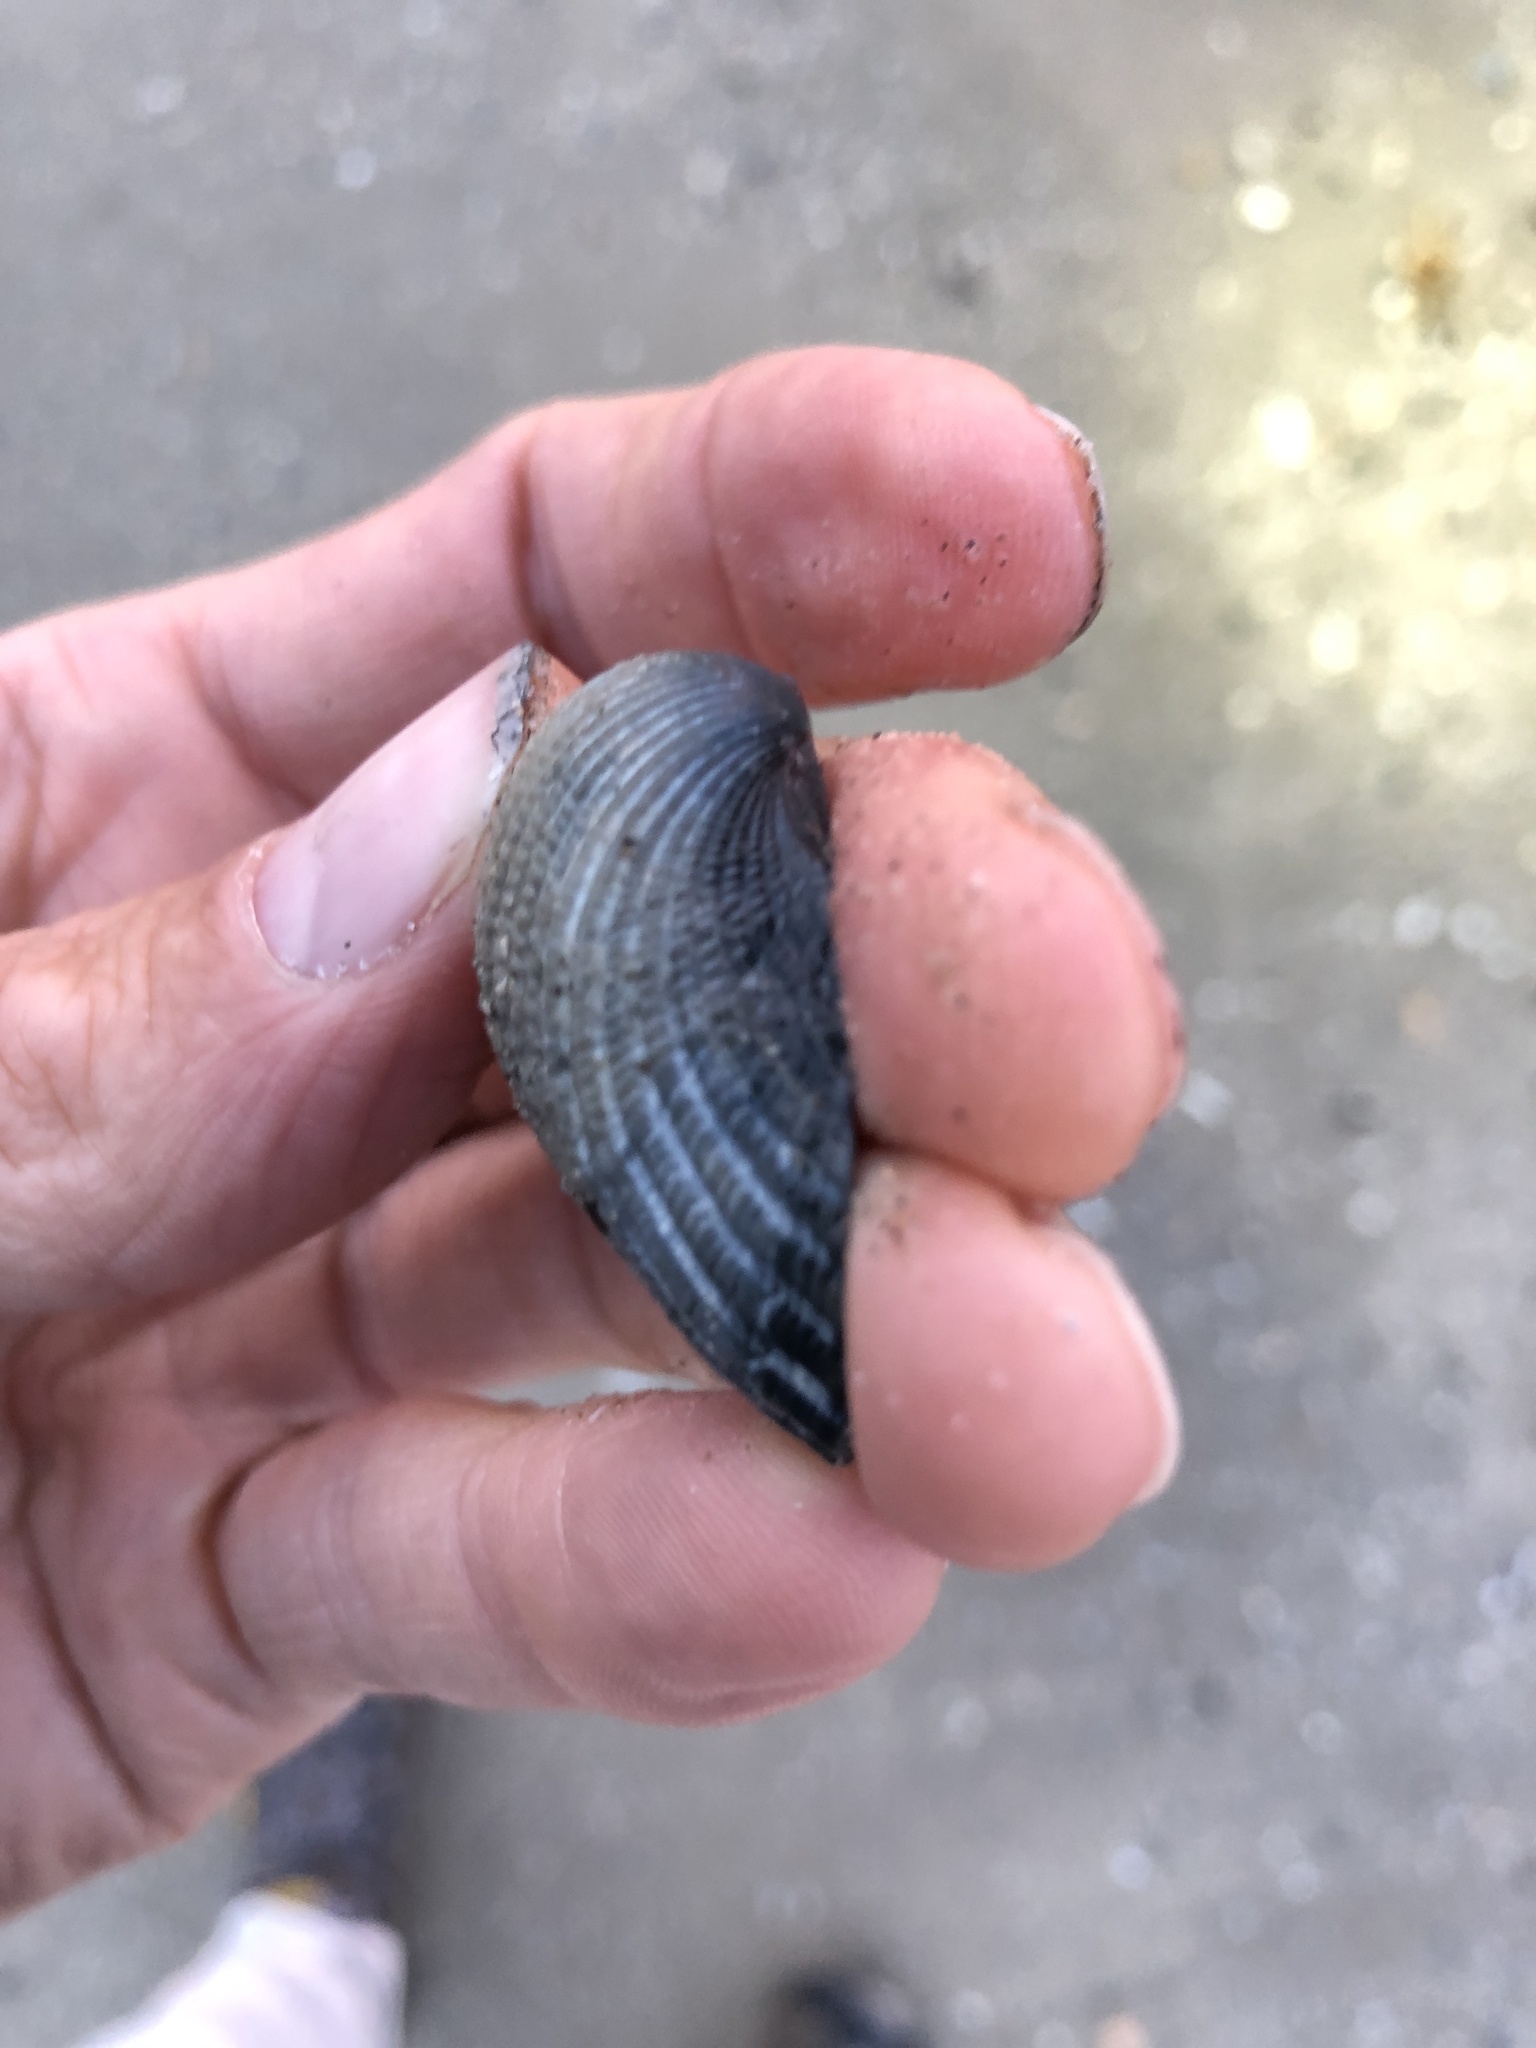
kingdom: Animalia
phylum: Mollusca
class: Bivalvia
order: Arcida
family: Arcidae
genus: Anadara
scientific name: Anadara brasiliana
